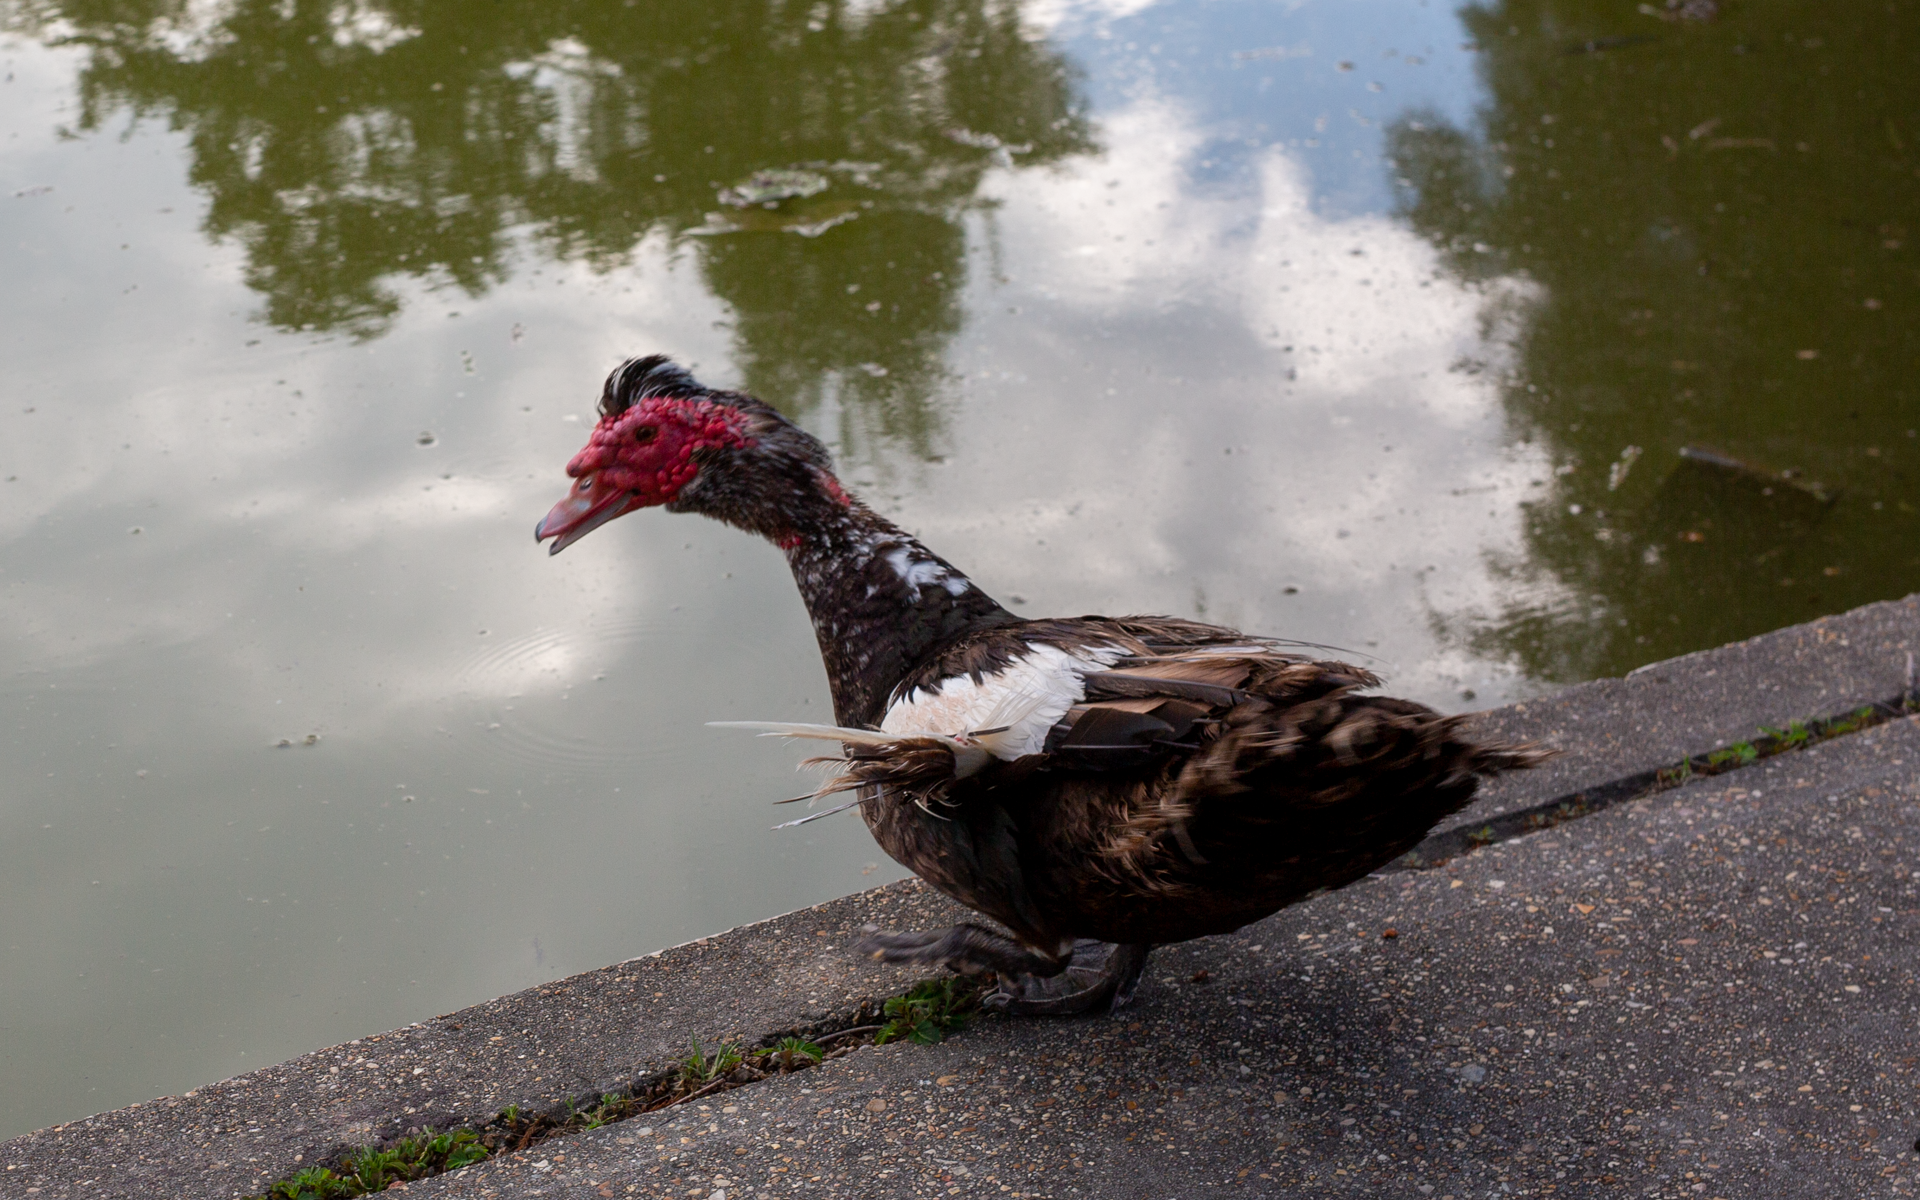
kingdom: Animalia
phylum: Chordata
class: Aves
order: Anseriformes
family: Anatidae
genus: Cairina
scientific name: Cairina moschata
